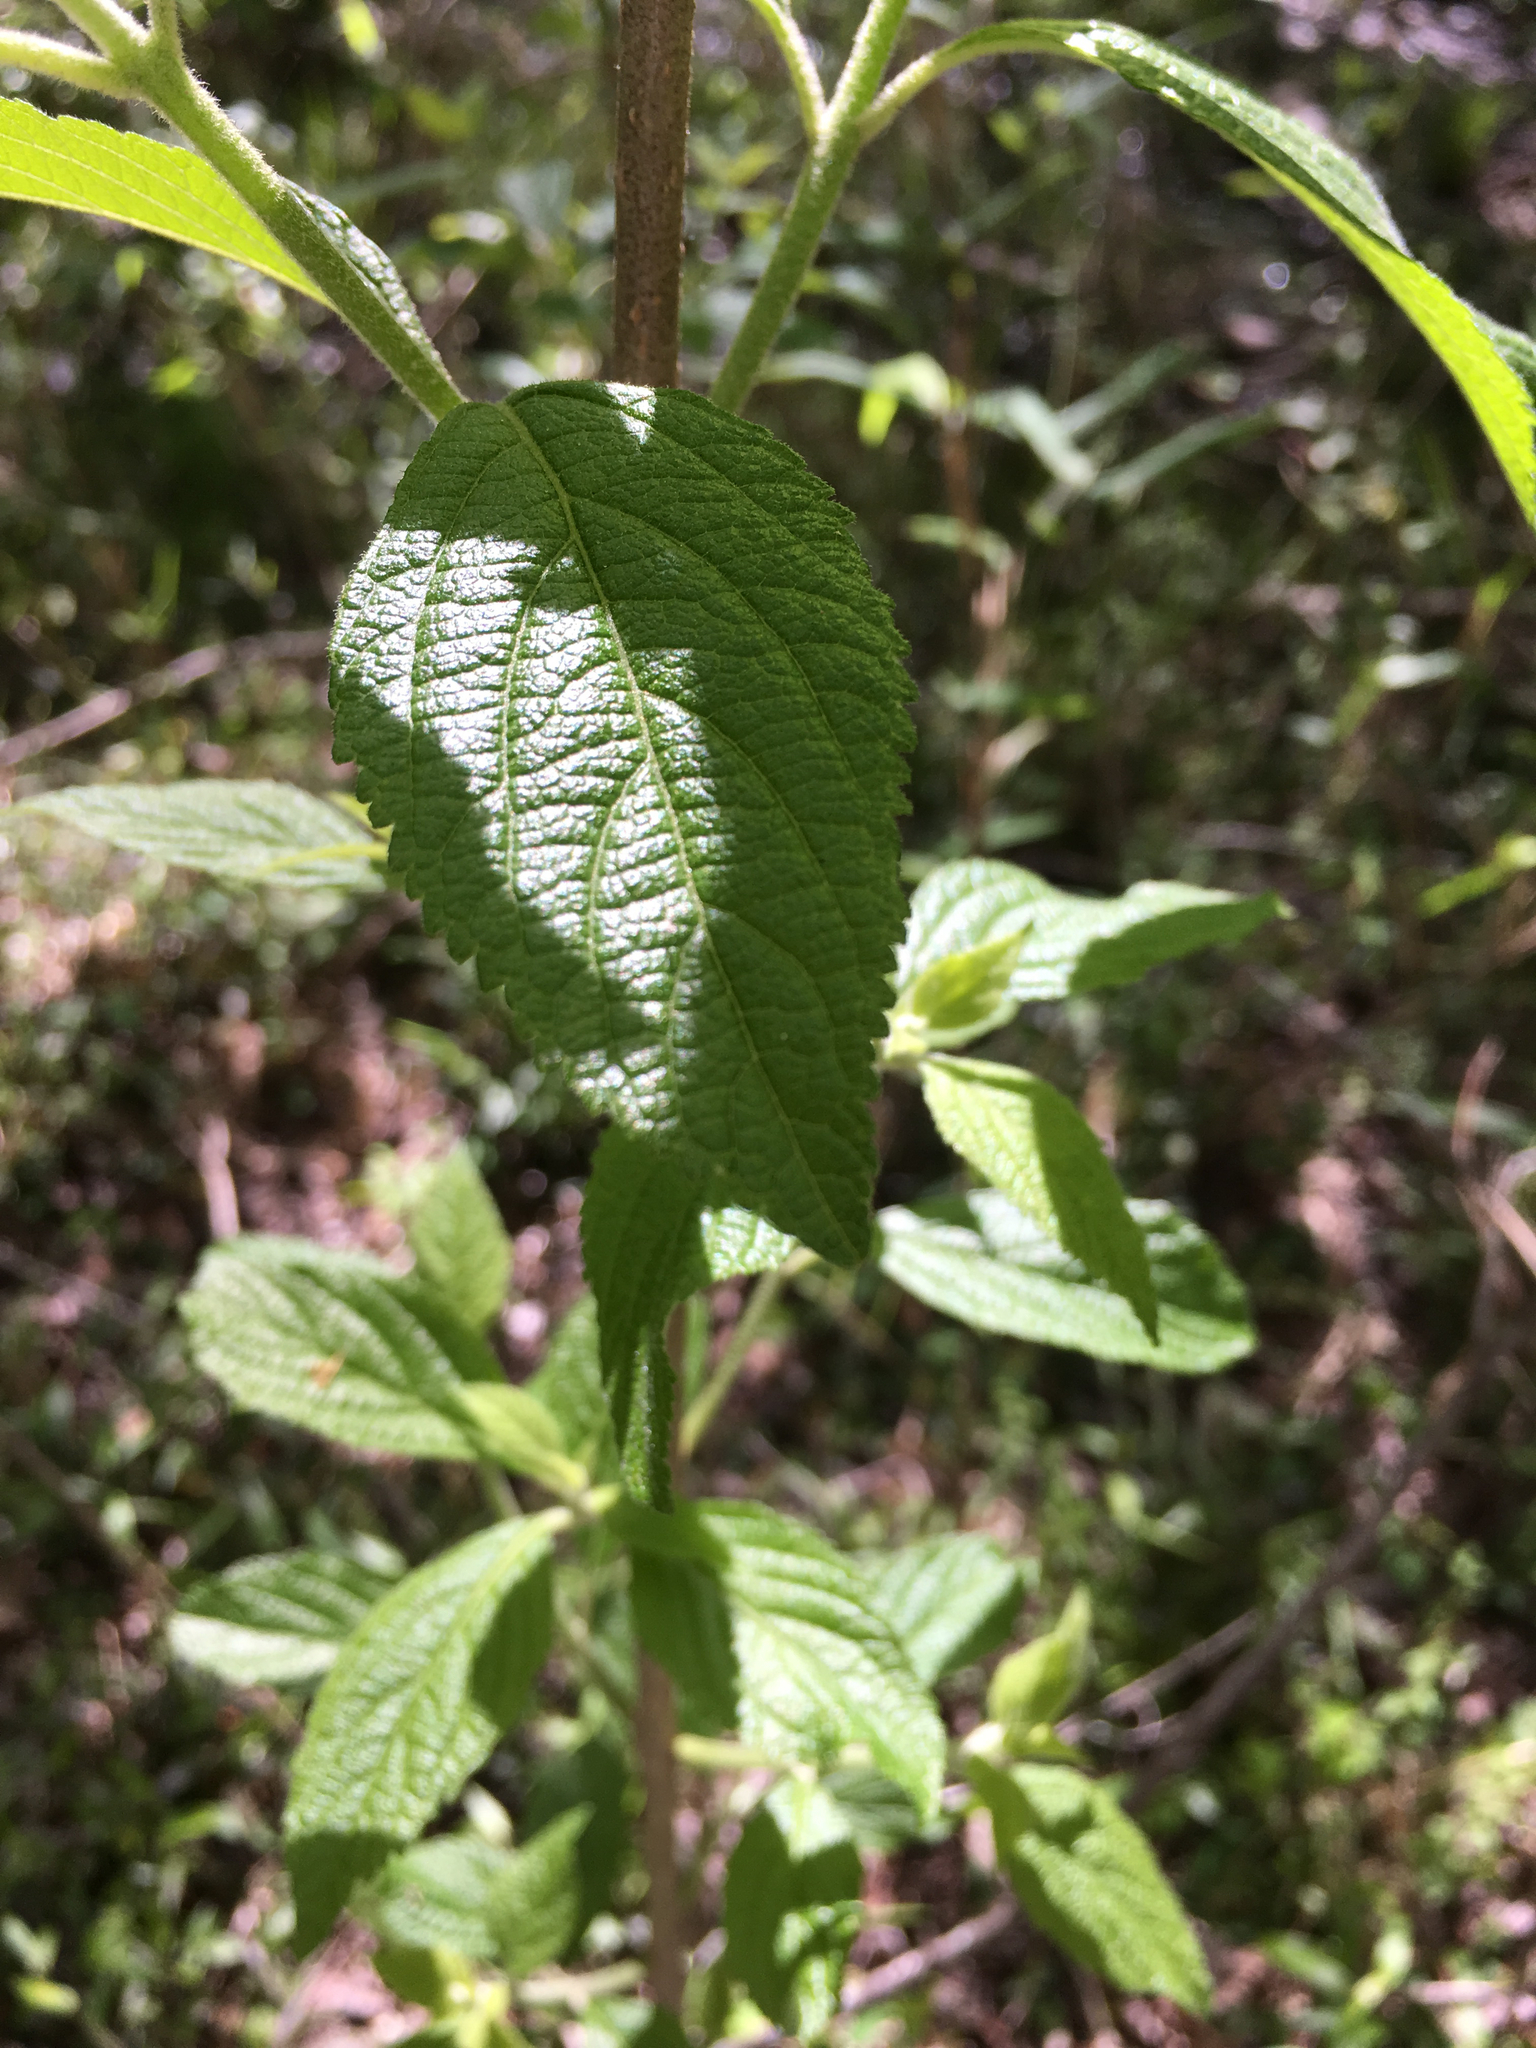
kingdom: Plantae
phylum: Tracheophyta
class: Magnoliopsida
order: Lamiales
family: Lamiaceae
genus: Callicarpa
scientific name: Callicarpa americana
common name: American beautyberry
